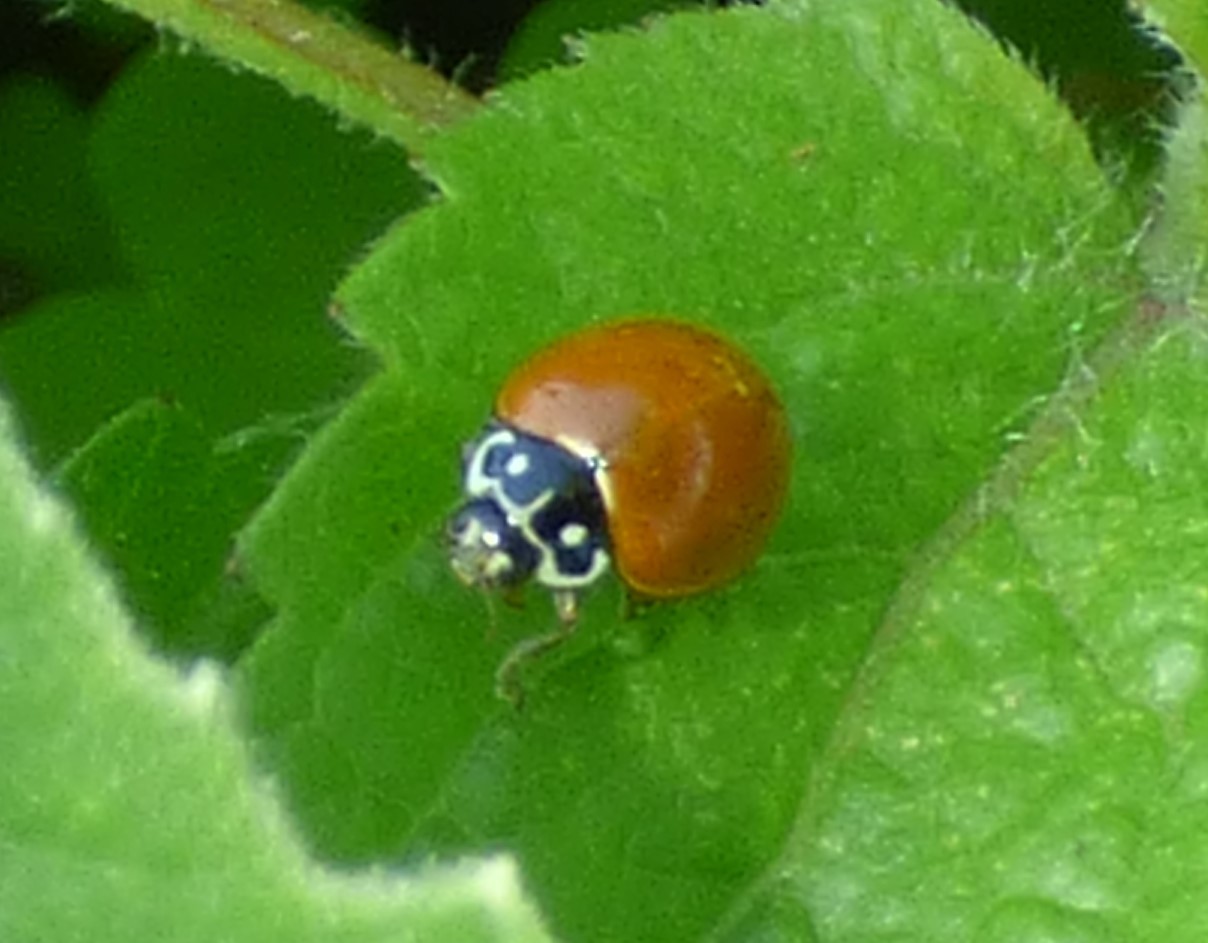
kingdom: Animalia
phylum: Arthropoda
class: Insecta
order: Coleoptera
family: Coccinellidae
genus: Cycloneda
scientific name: Cycloneda sanguinea
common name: Ladybird beetle
